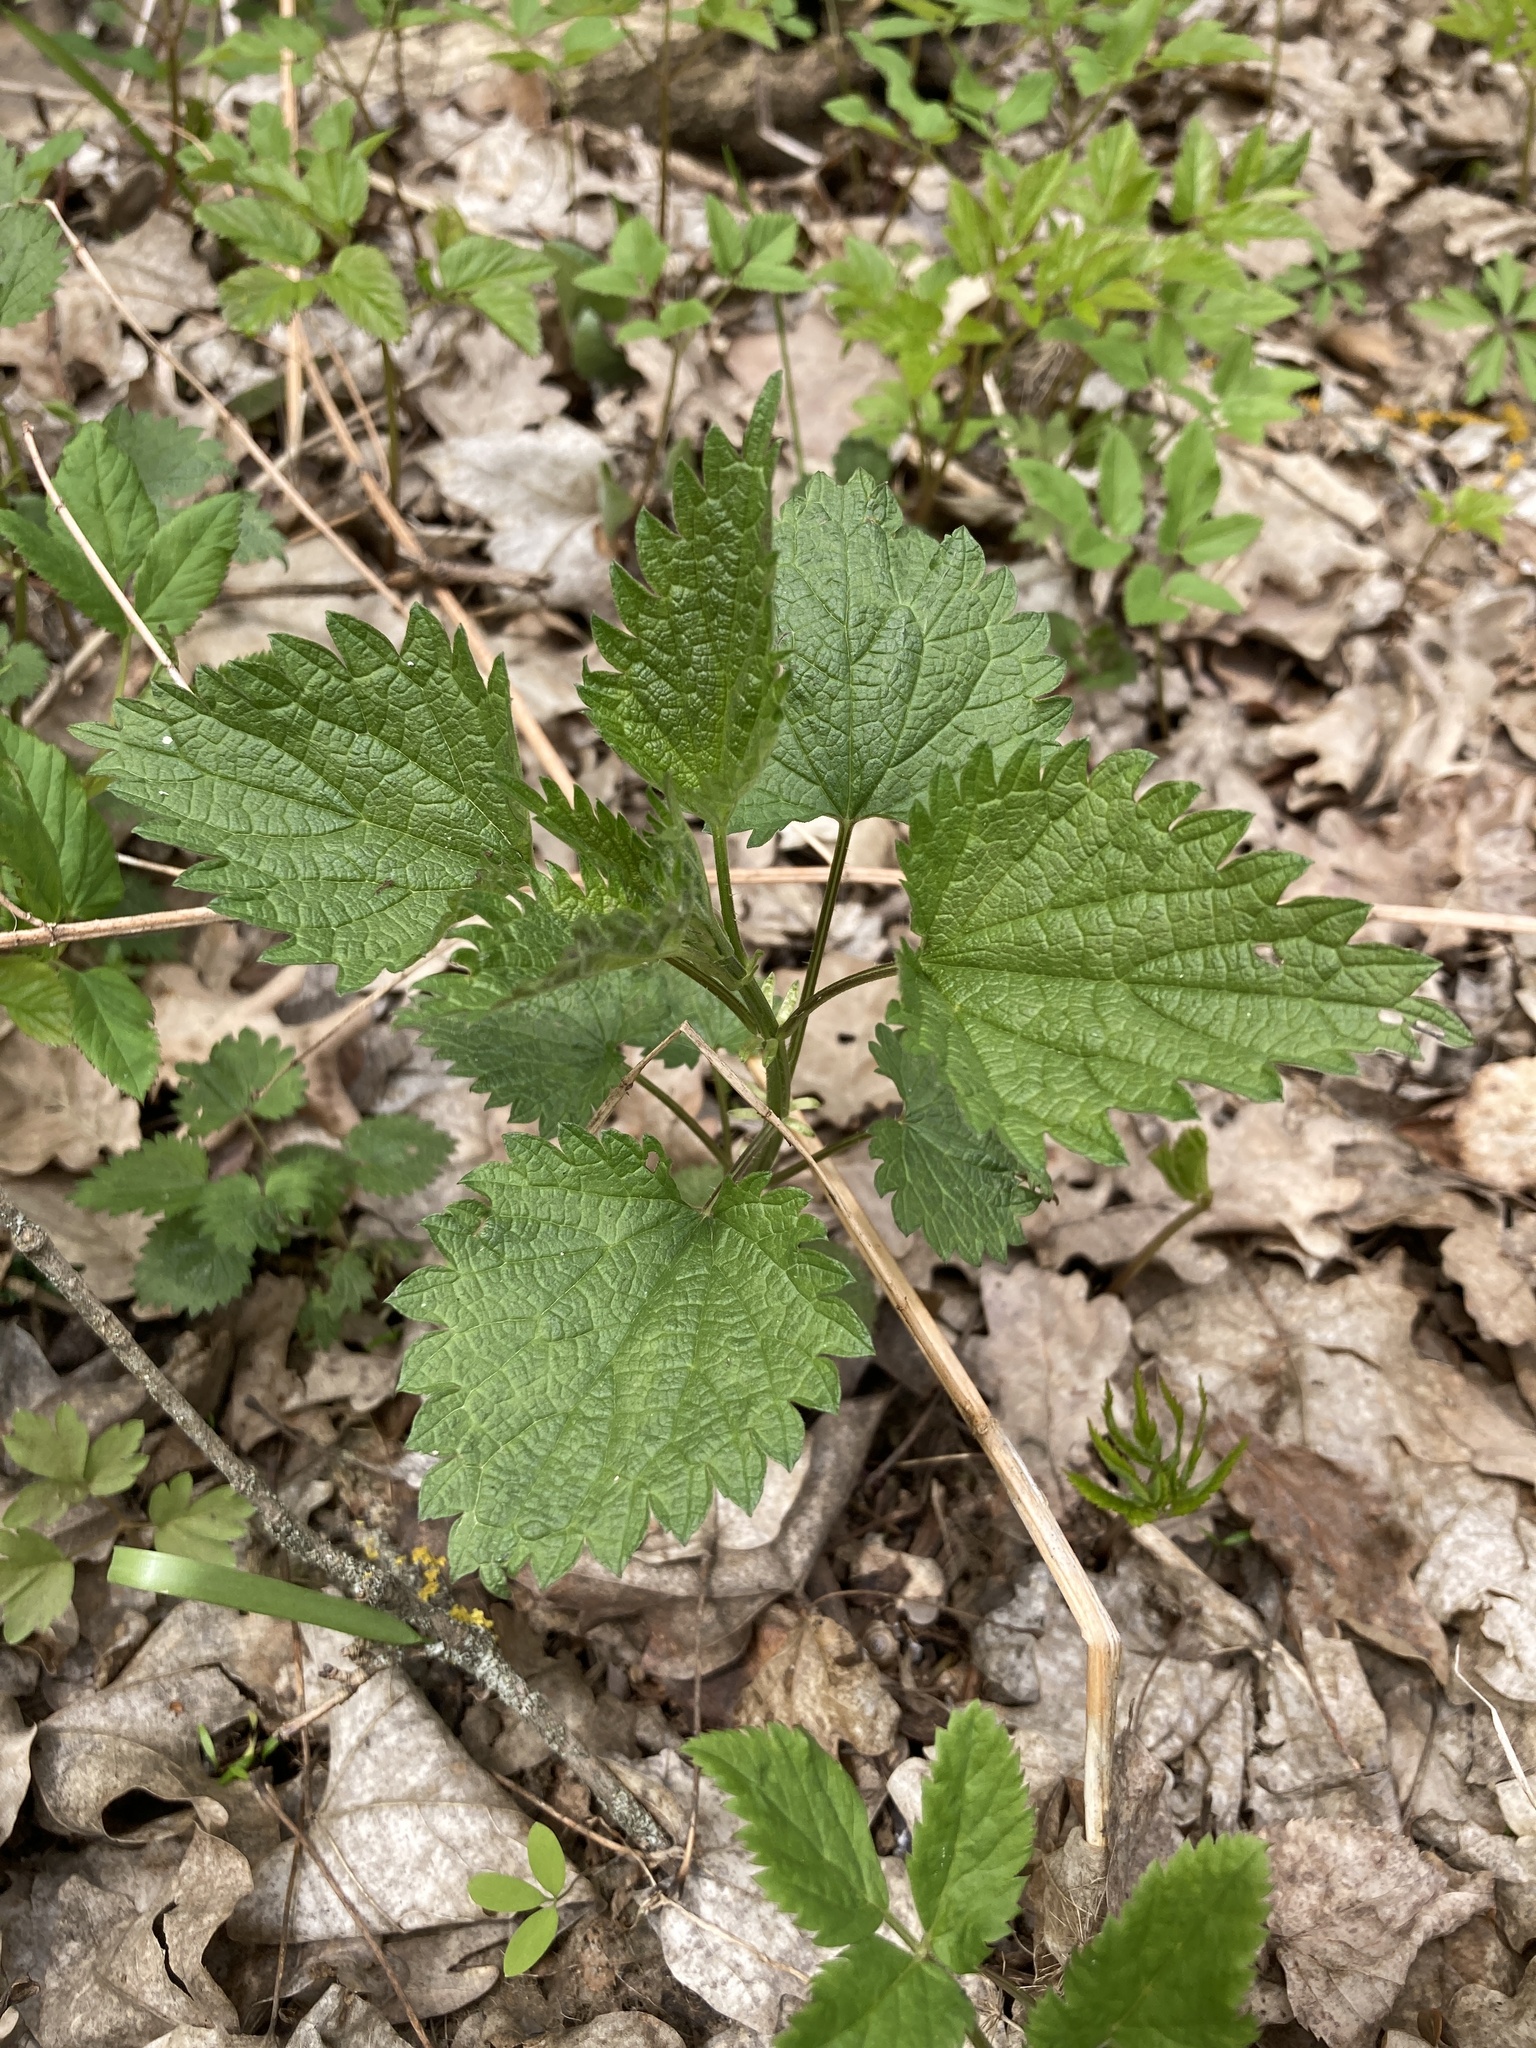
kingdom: Plantae
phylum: Tracheophyta
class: Magnoliopsida
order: Rosales
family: Urticaceae
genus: Urtica
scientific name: Urtica dioica
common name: Common nettle
